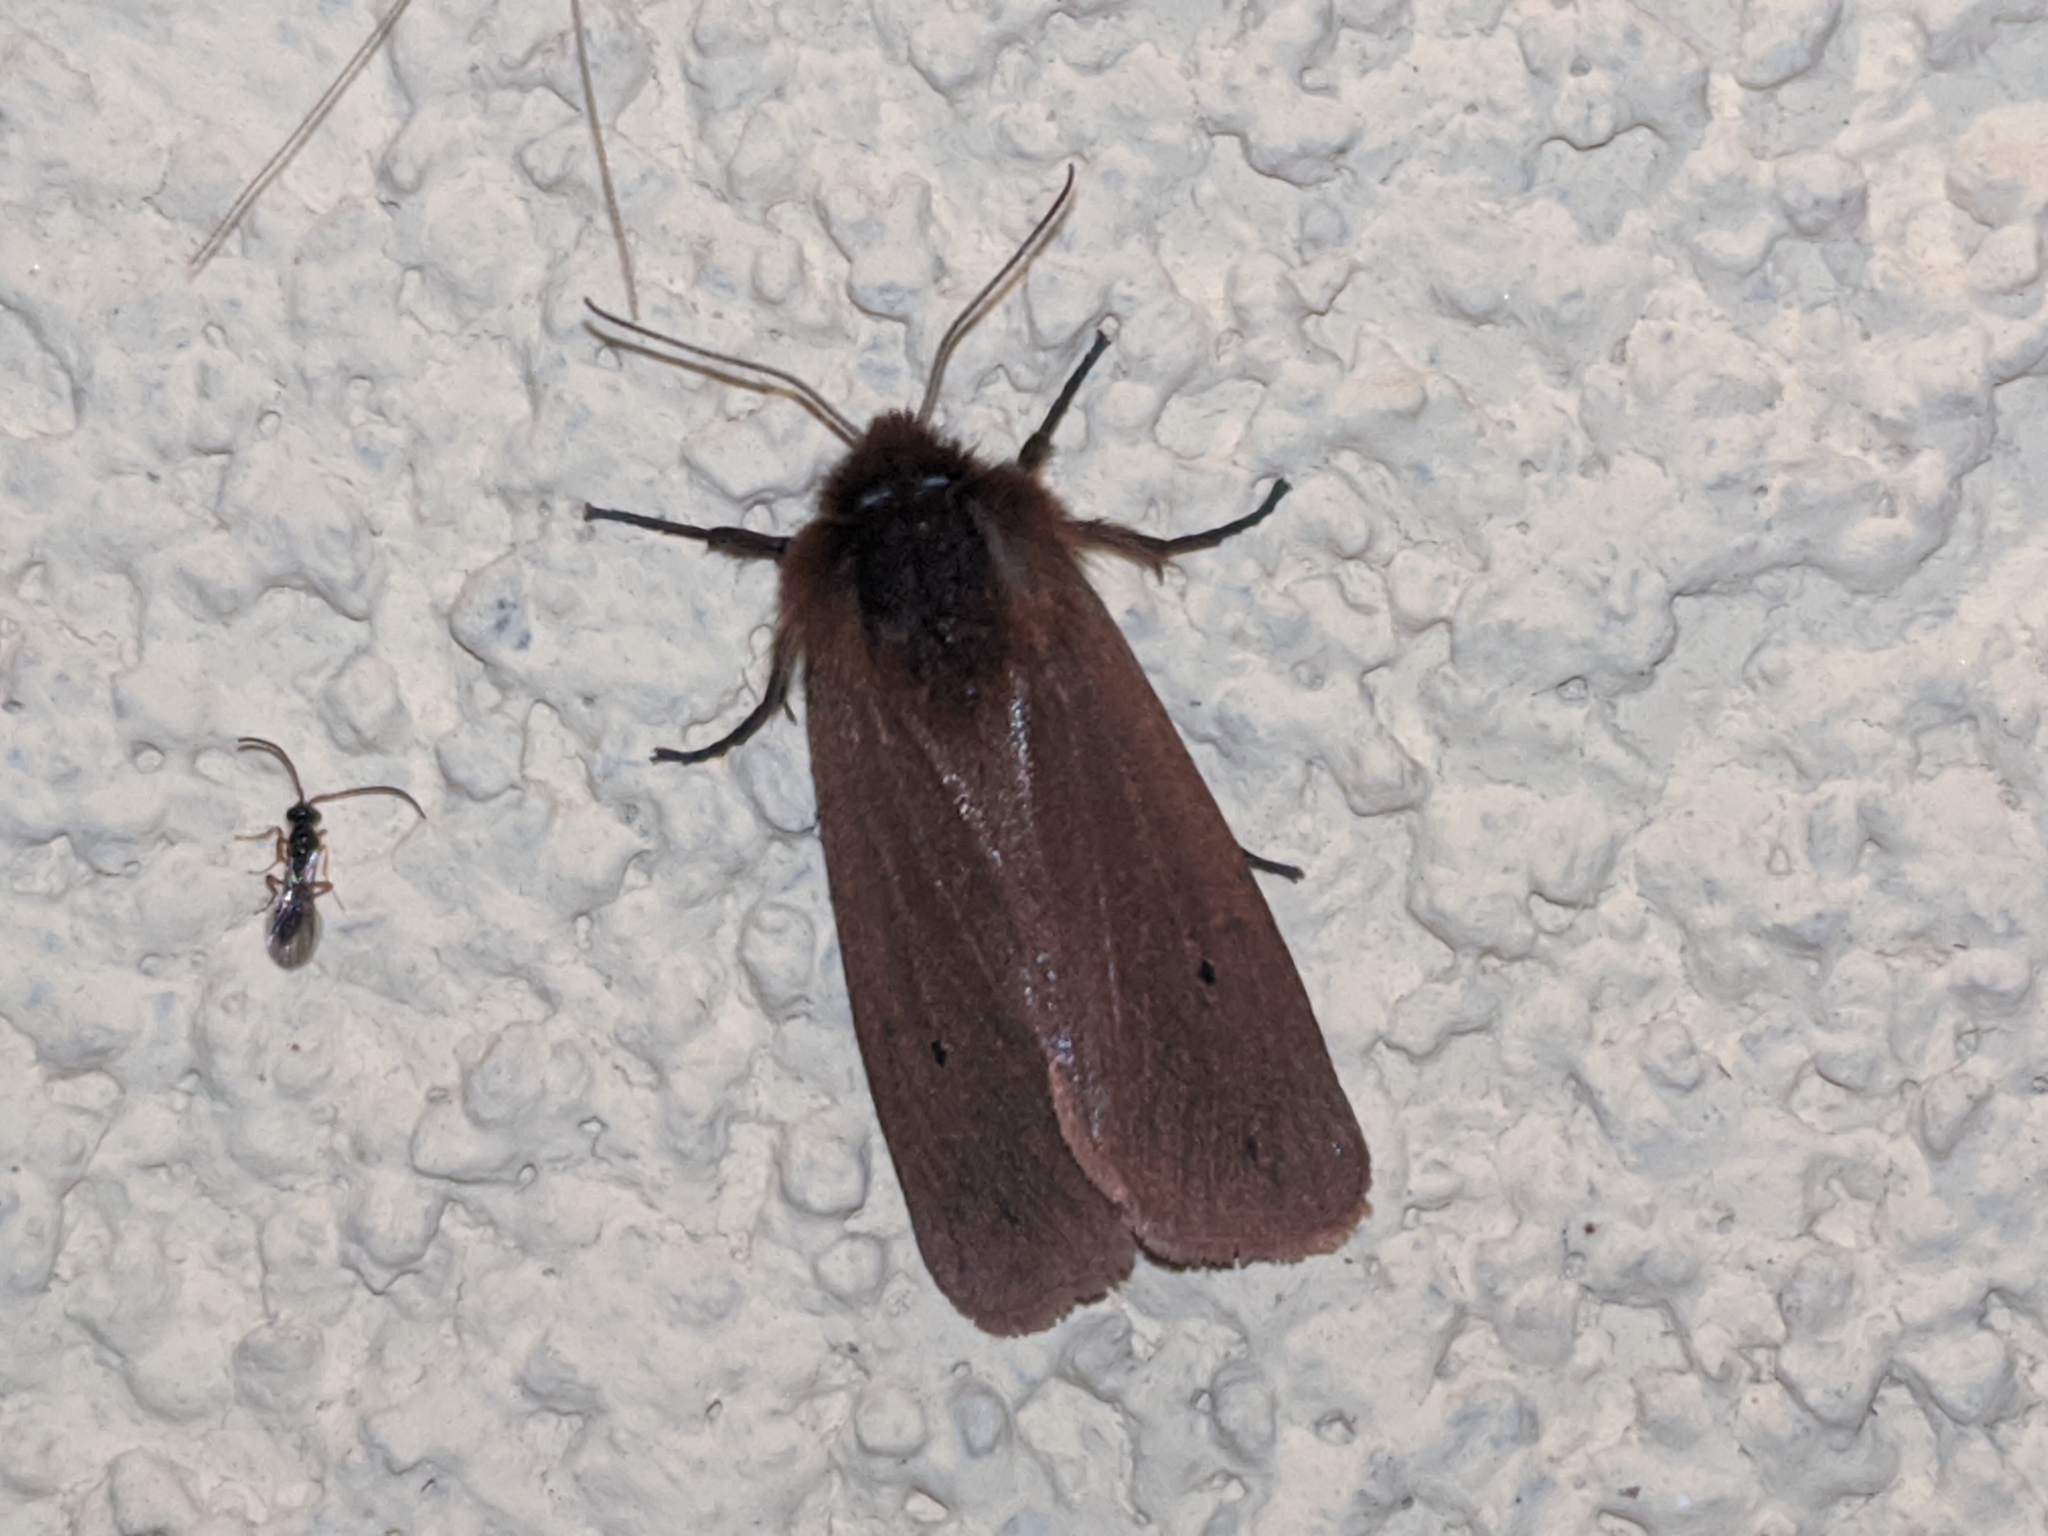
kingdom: Animalia
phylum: Arthropoda
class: Insecta
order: Lepidoptera
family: Erebidae
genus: Phragmatobia
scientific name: Phragmatobia fuliginosa
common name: Ruby tiger
